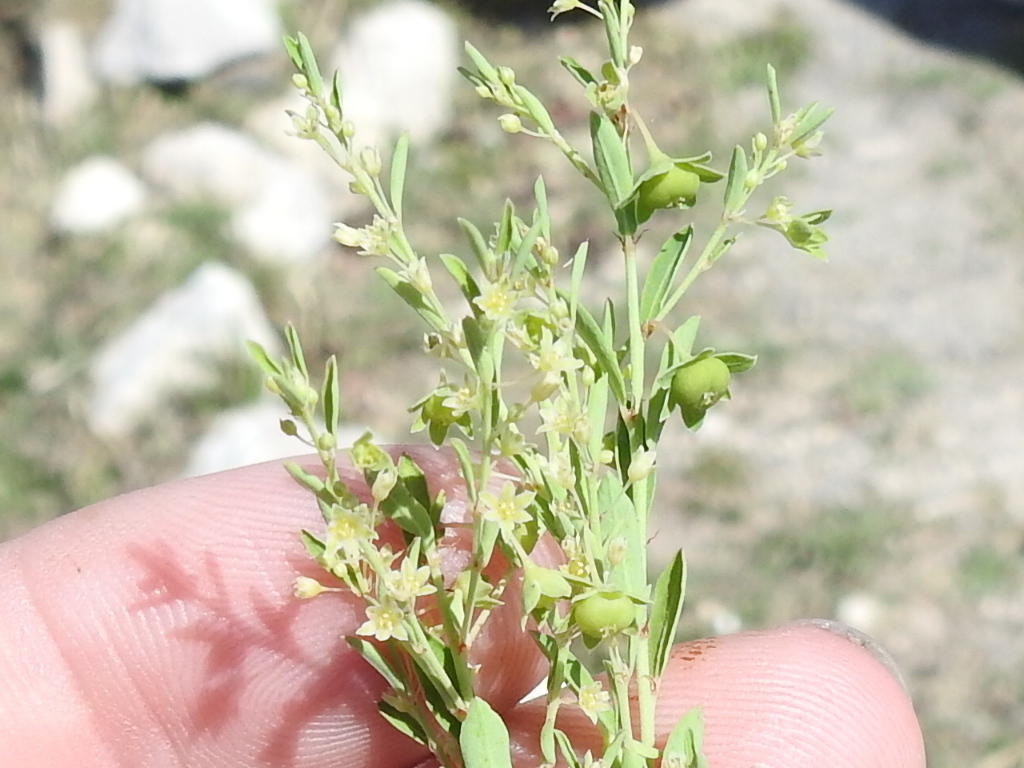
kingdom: Plantae
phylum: Tracheophyta
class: Magnoliopsida
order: Malpighiales
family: Phyllanthaceae
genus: Phyllanthus
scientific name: Phyllanthus polygonoides
